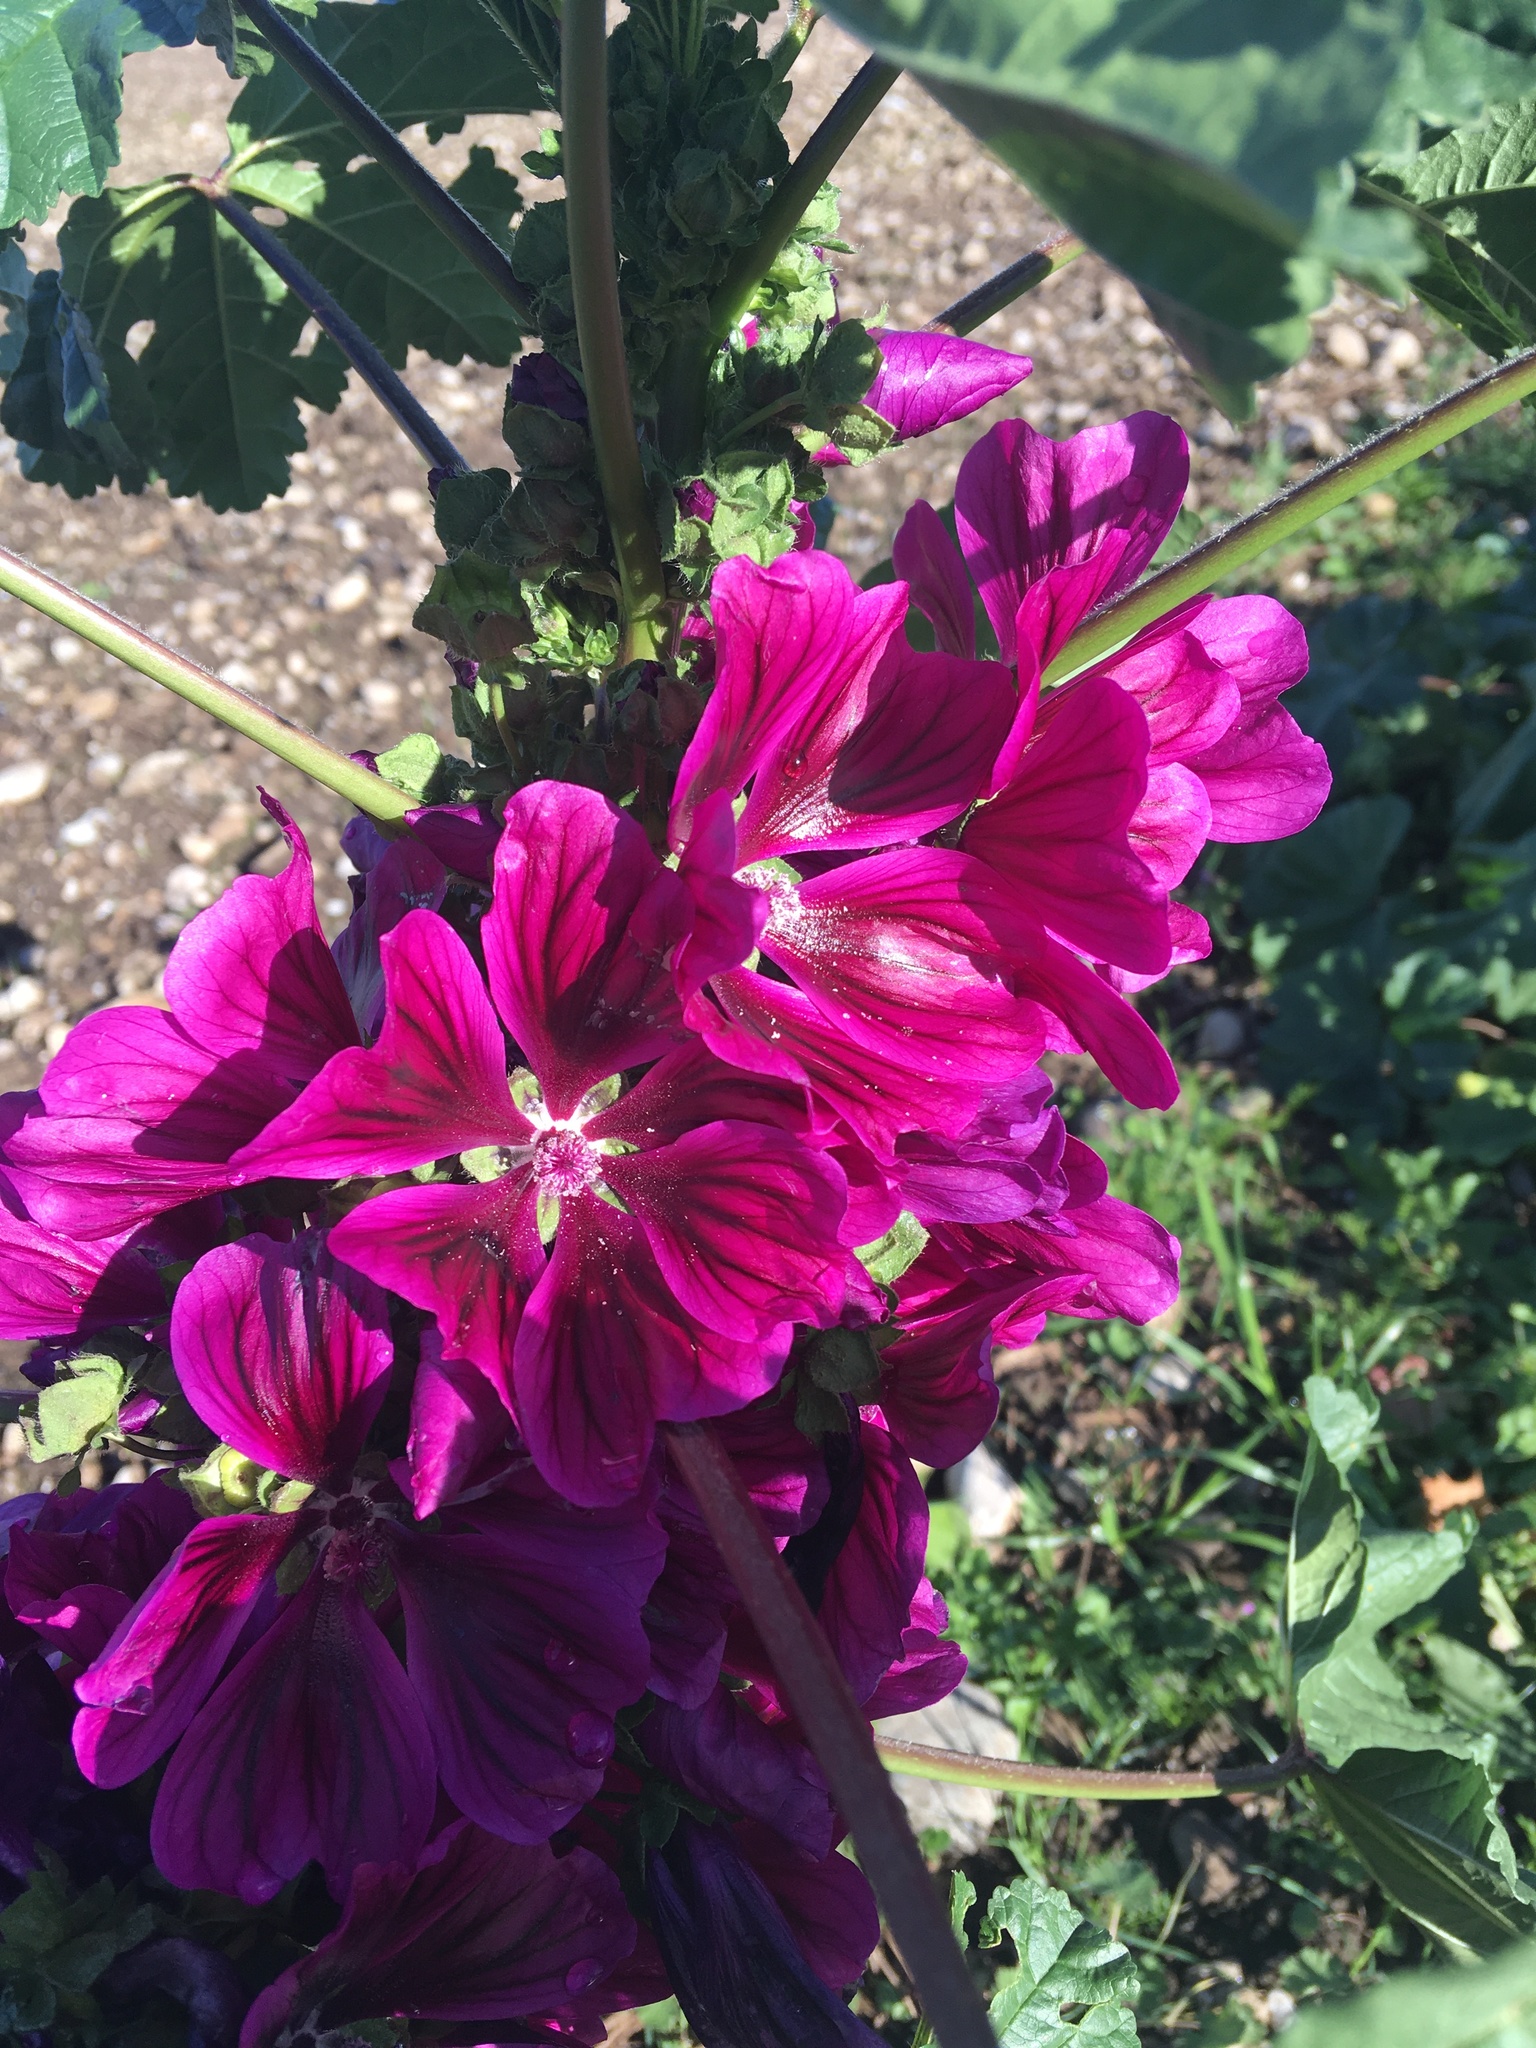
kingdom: Plantae
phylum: Tracheophyta
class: Magnoliopsida
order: Malvales
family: Malvaceae
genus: Malva
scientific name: Malva sylvestris
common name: Common mallow
